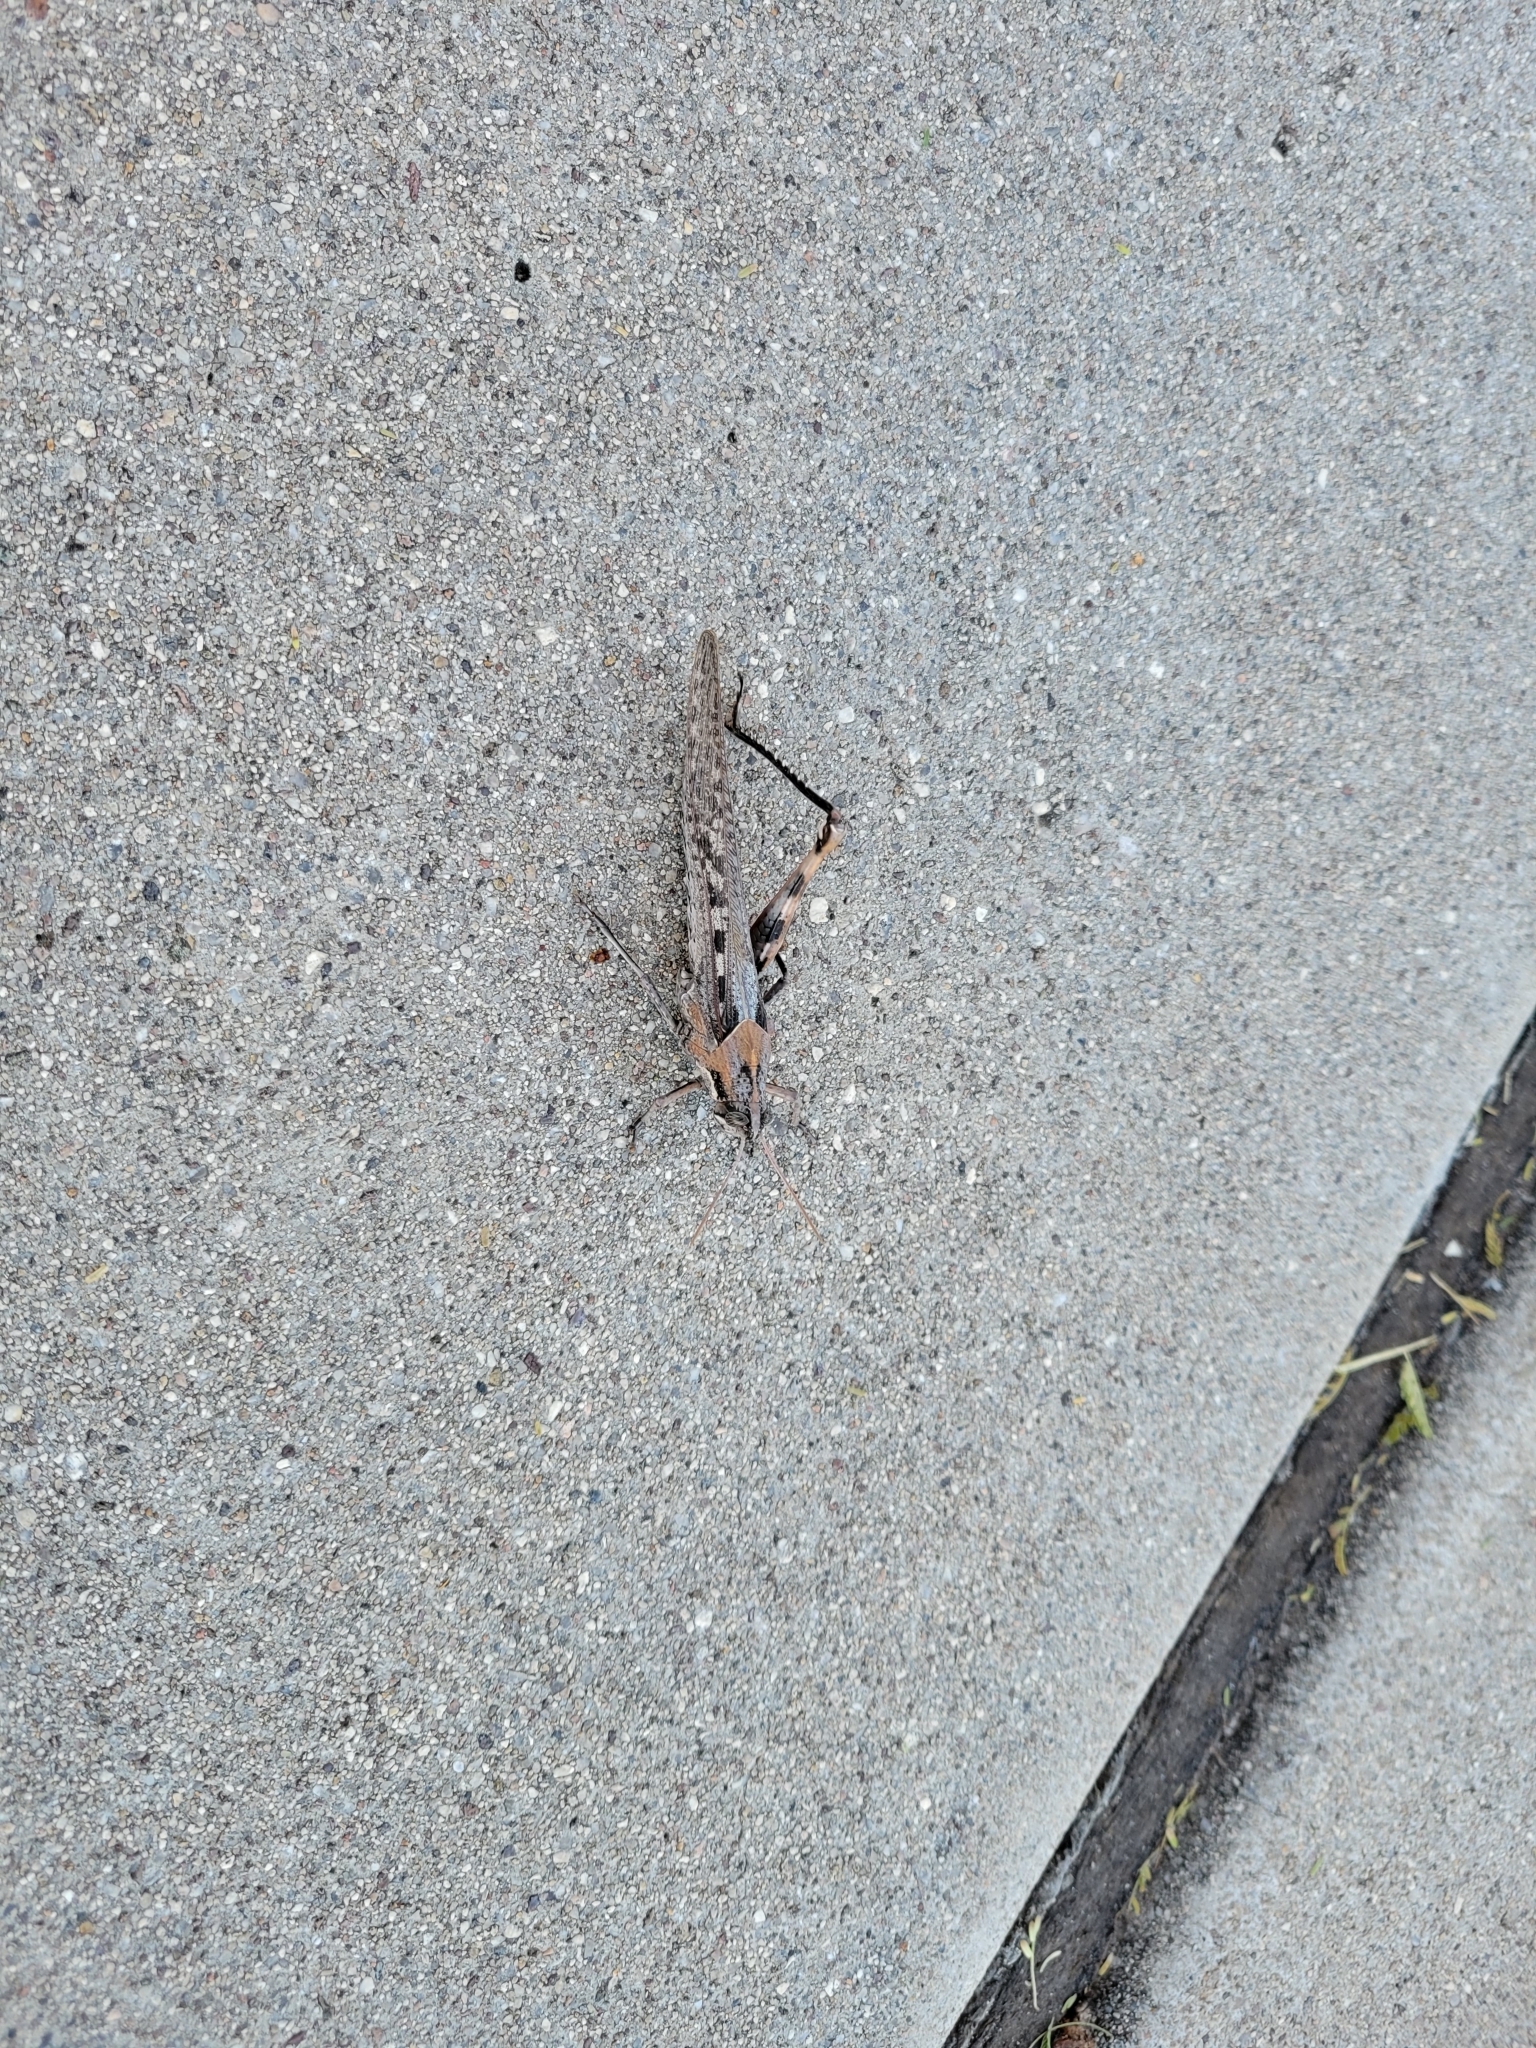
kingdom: Animalia
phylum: Arthropoda
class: Insecta
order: Orthoptera
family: Acrididae
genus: Schistocerca
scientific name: Schistocerca nitens
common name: Vagrant grasshopper
